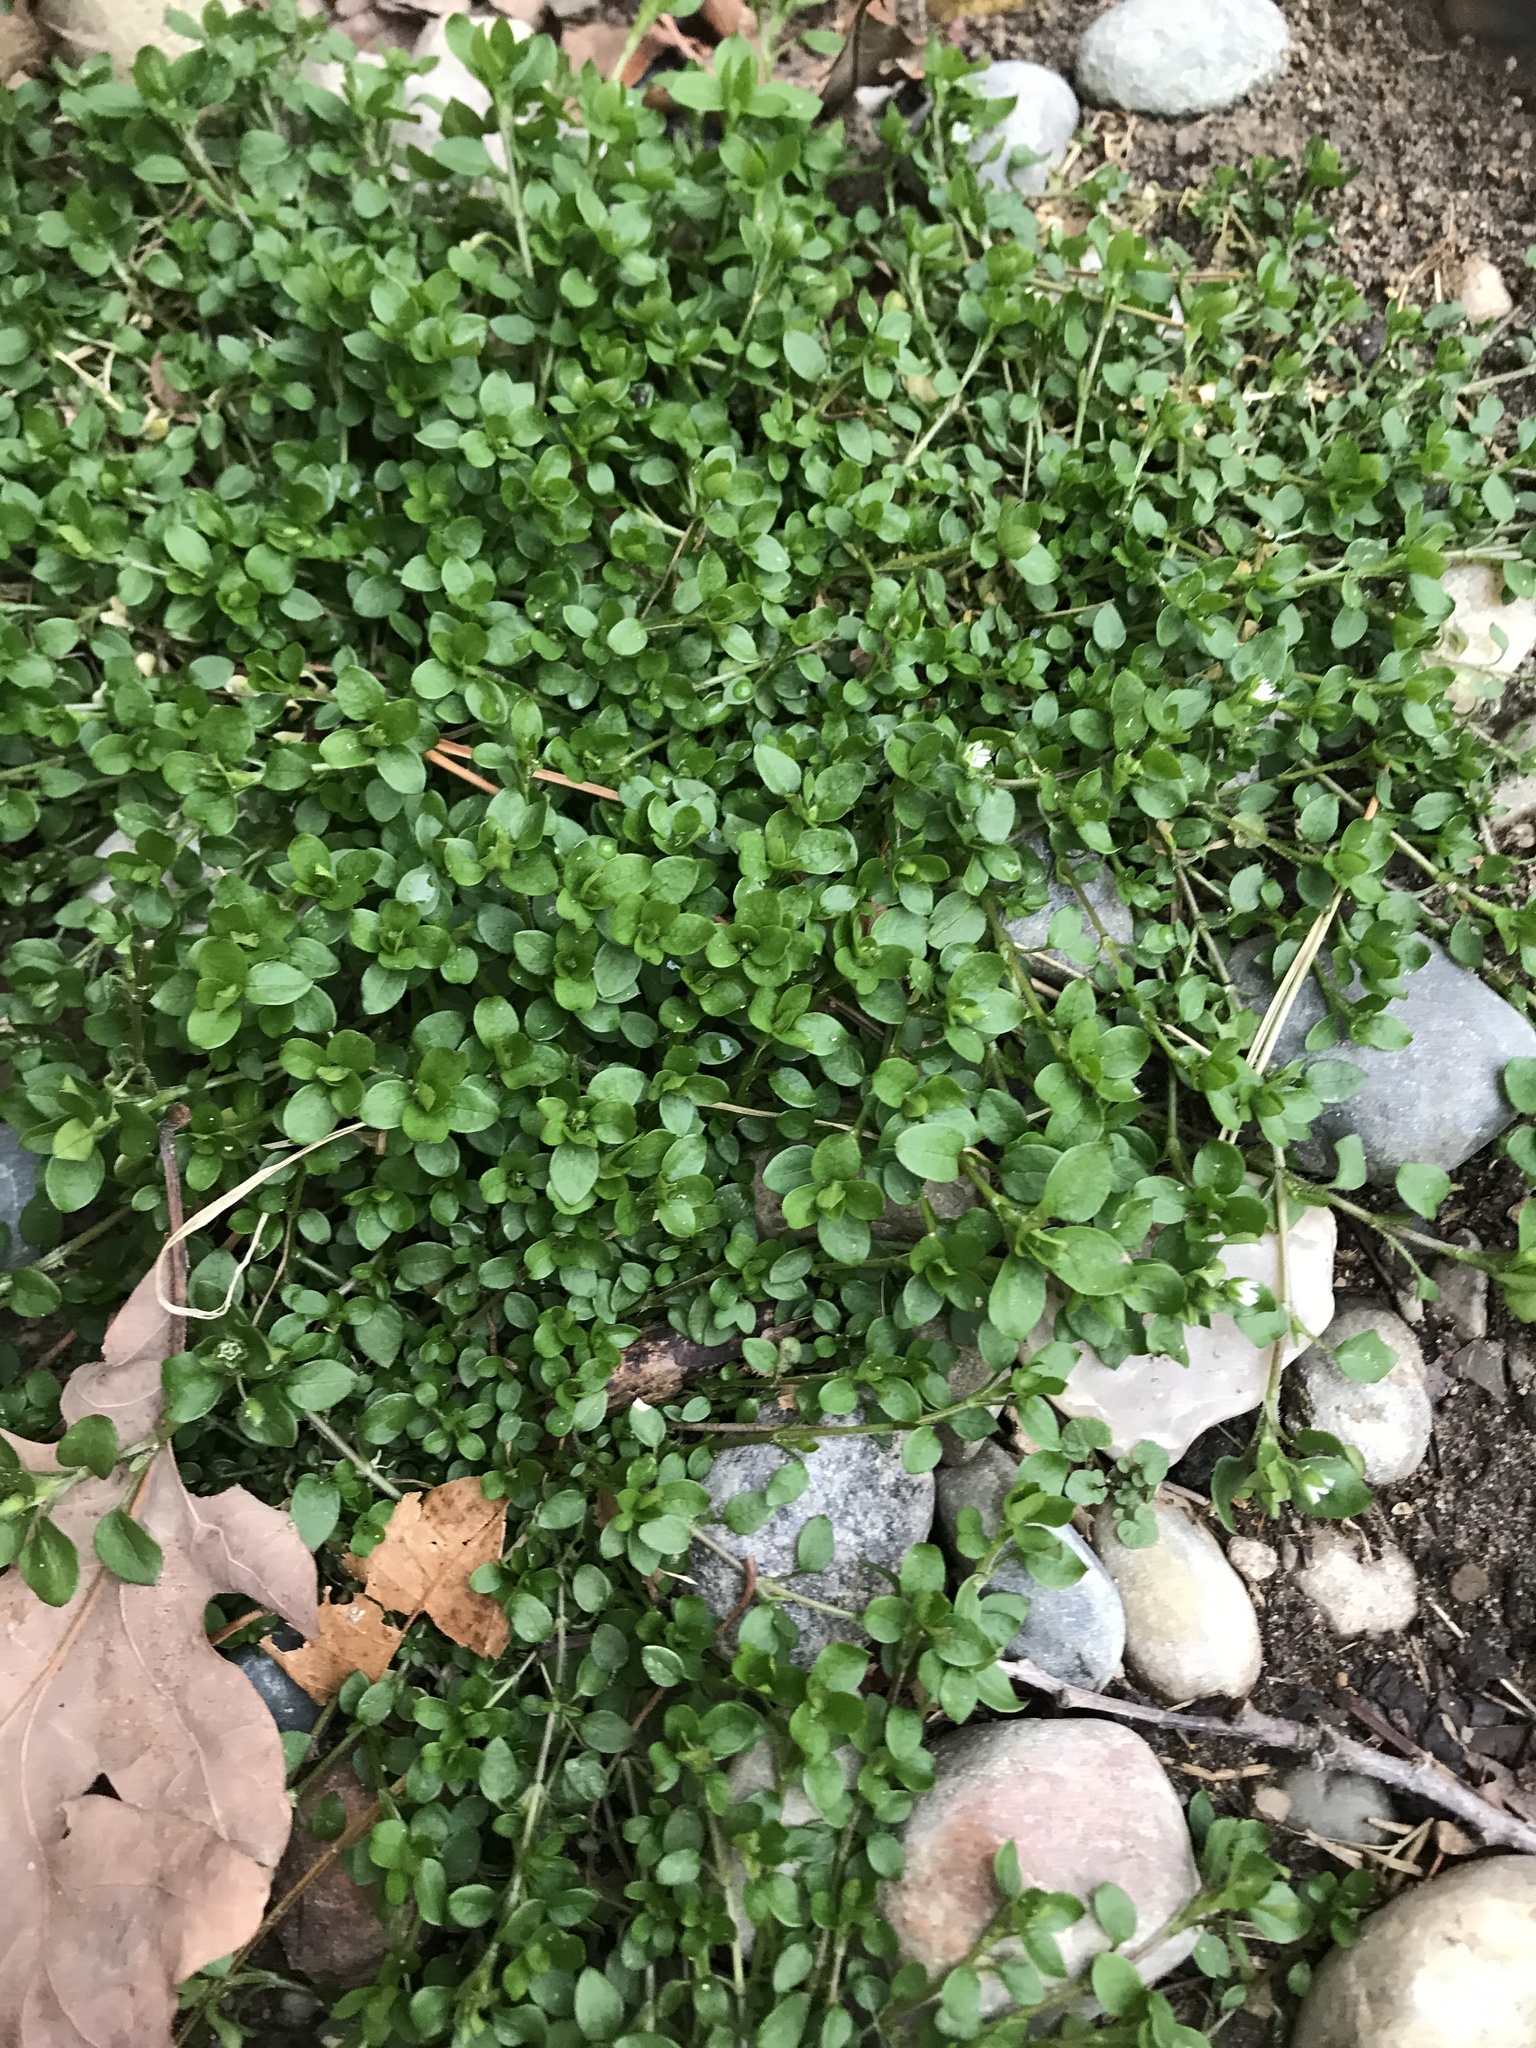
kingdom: Plantae
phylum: Tracheophyta
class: Magnoliopsida
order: Caryophyllales
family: Caryophyllaceae
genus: Stellaria
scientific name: Stellaria media
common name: Common chickweed
